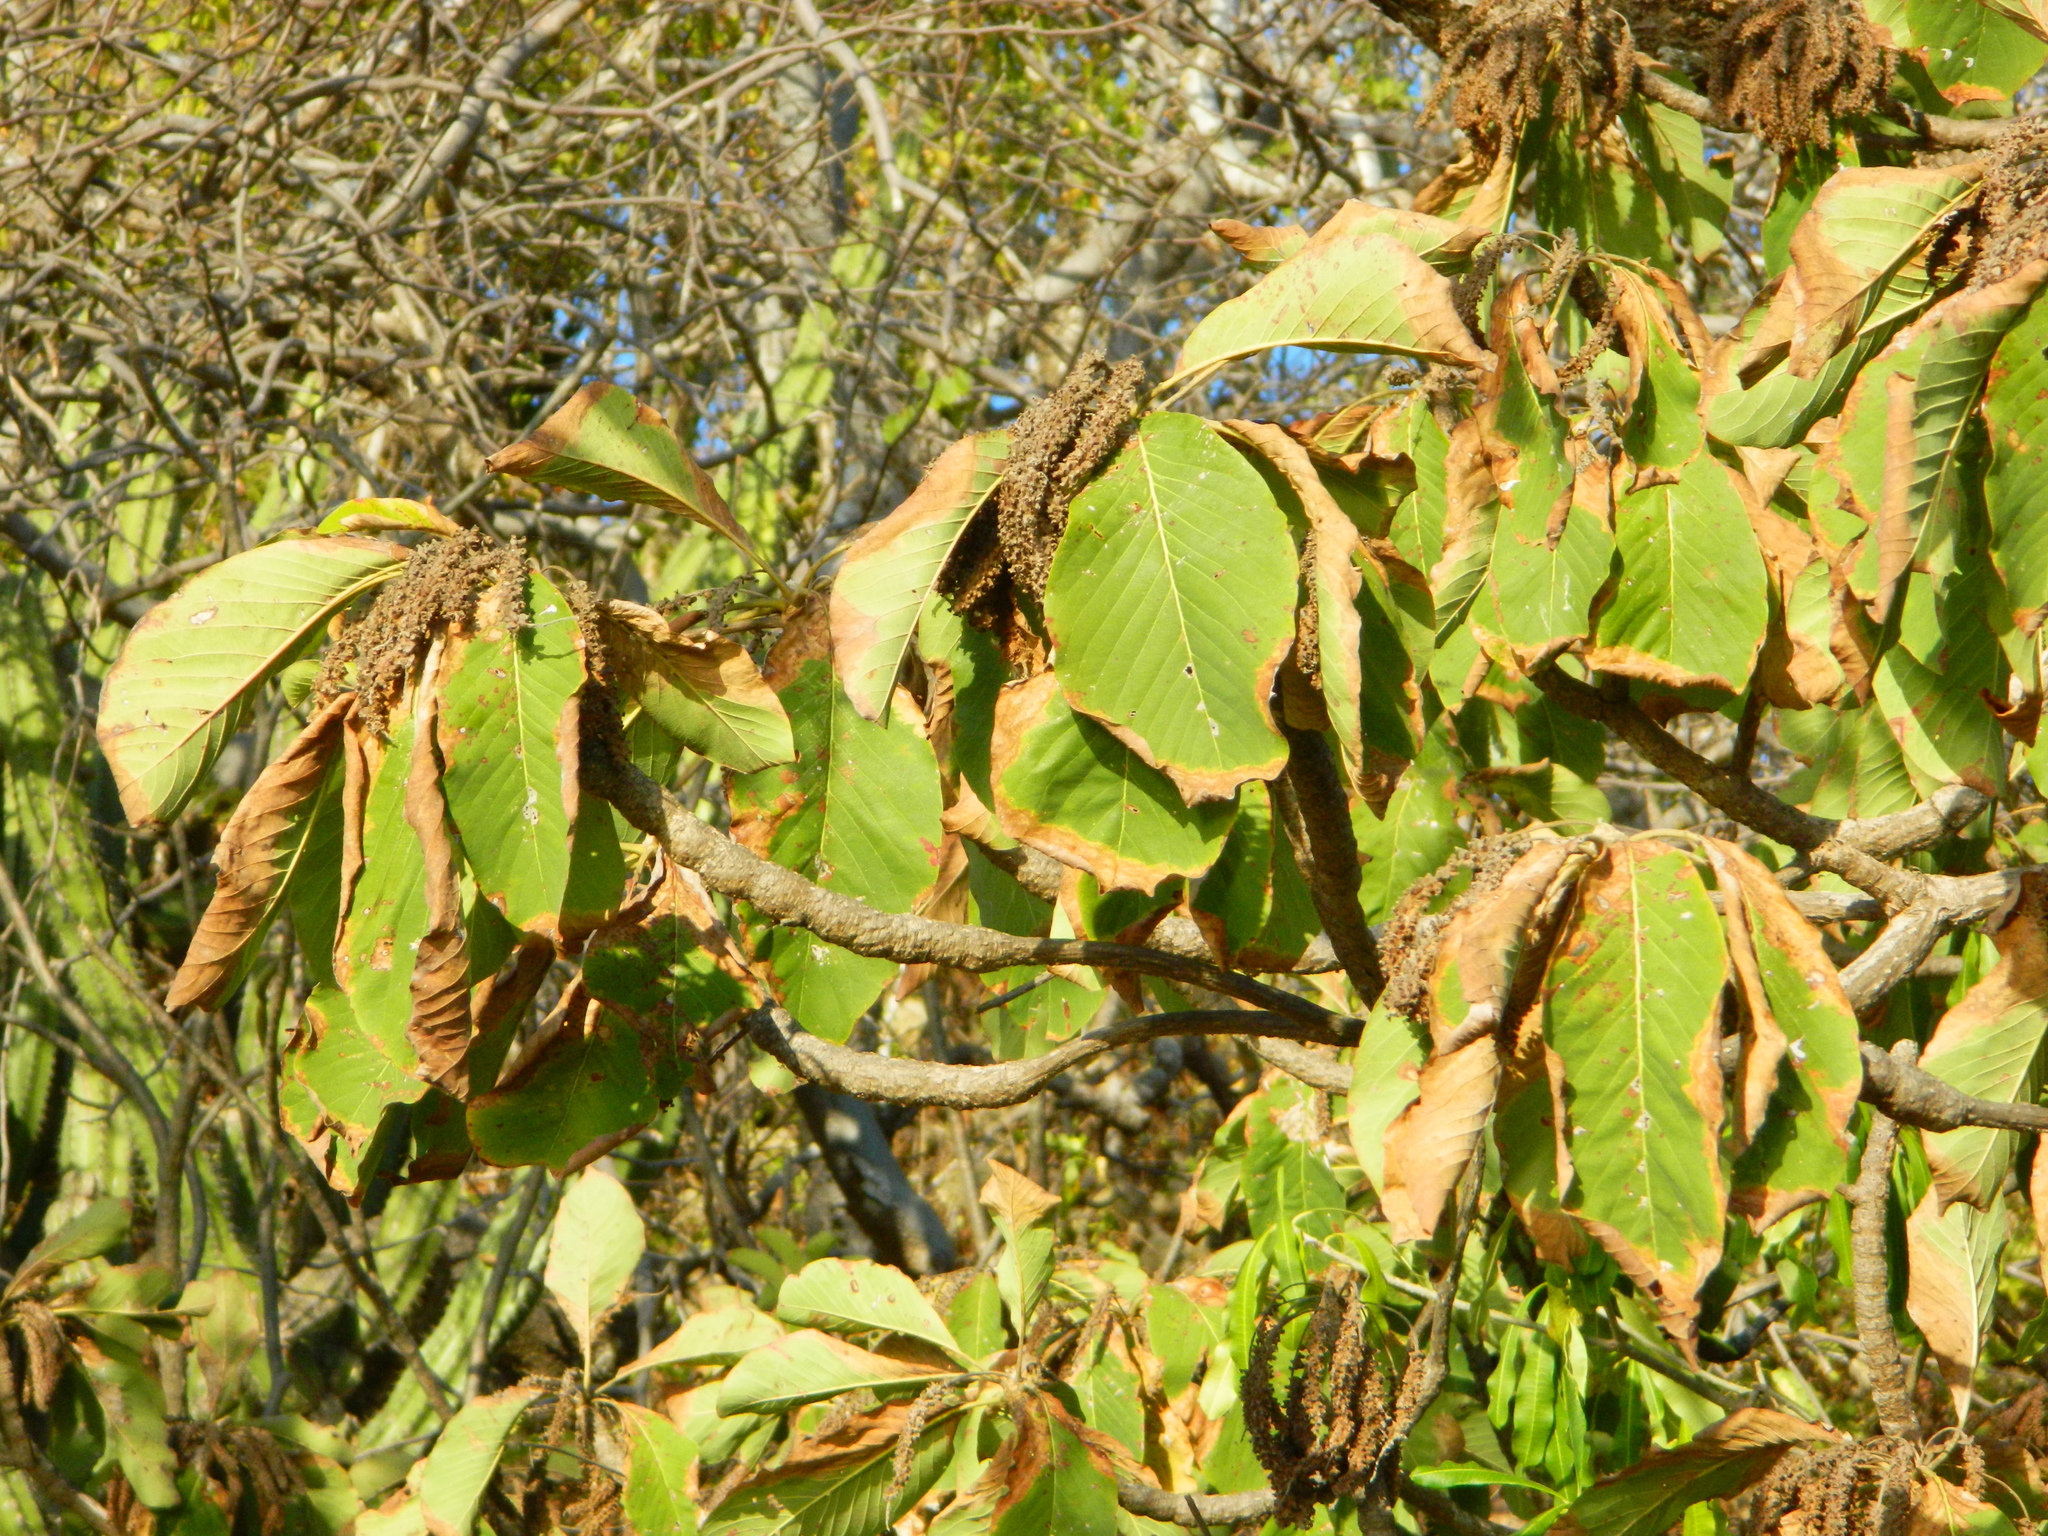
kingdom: Plantae
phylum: Tracheophyta
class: Magnoliopsida
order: Myrtales
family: Combretaceae
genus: Terminalia
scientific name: Terminalia macrostachya
